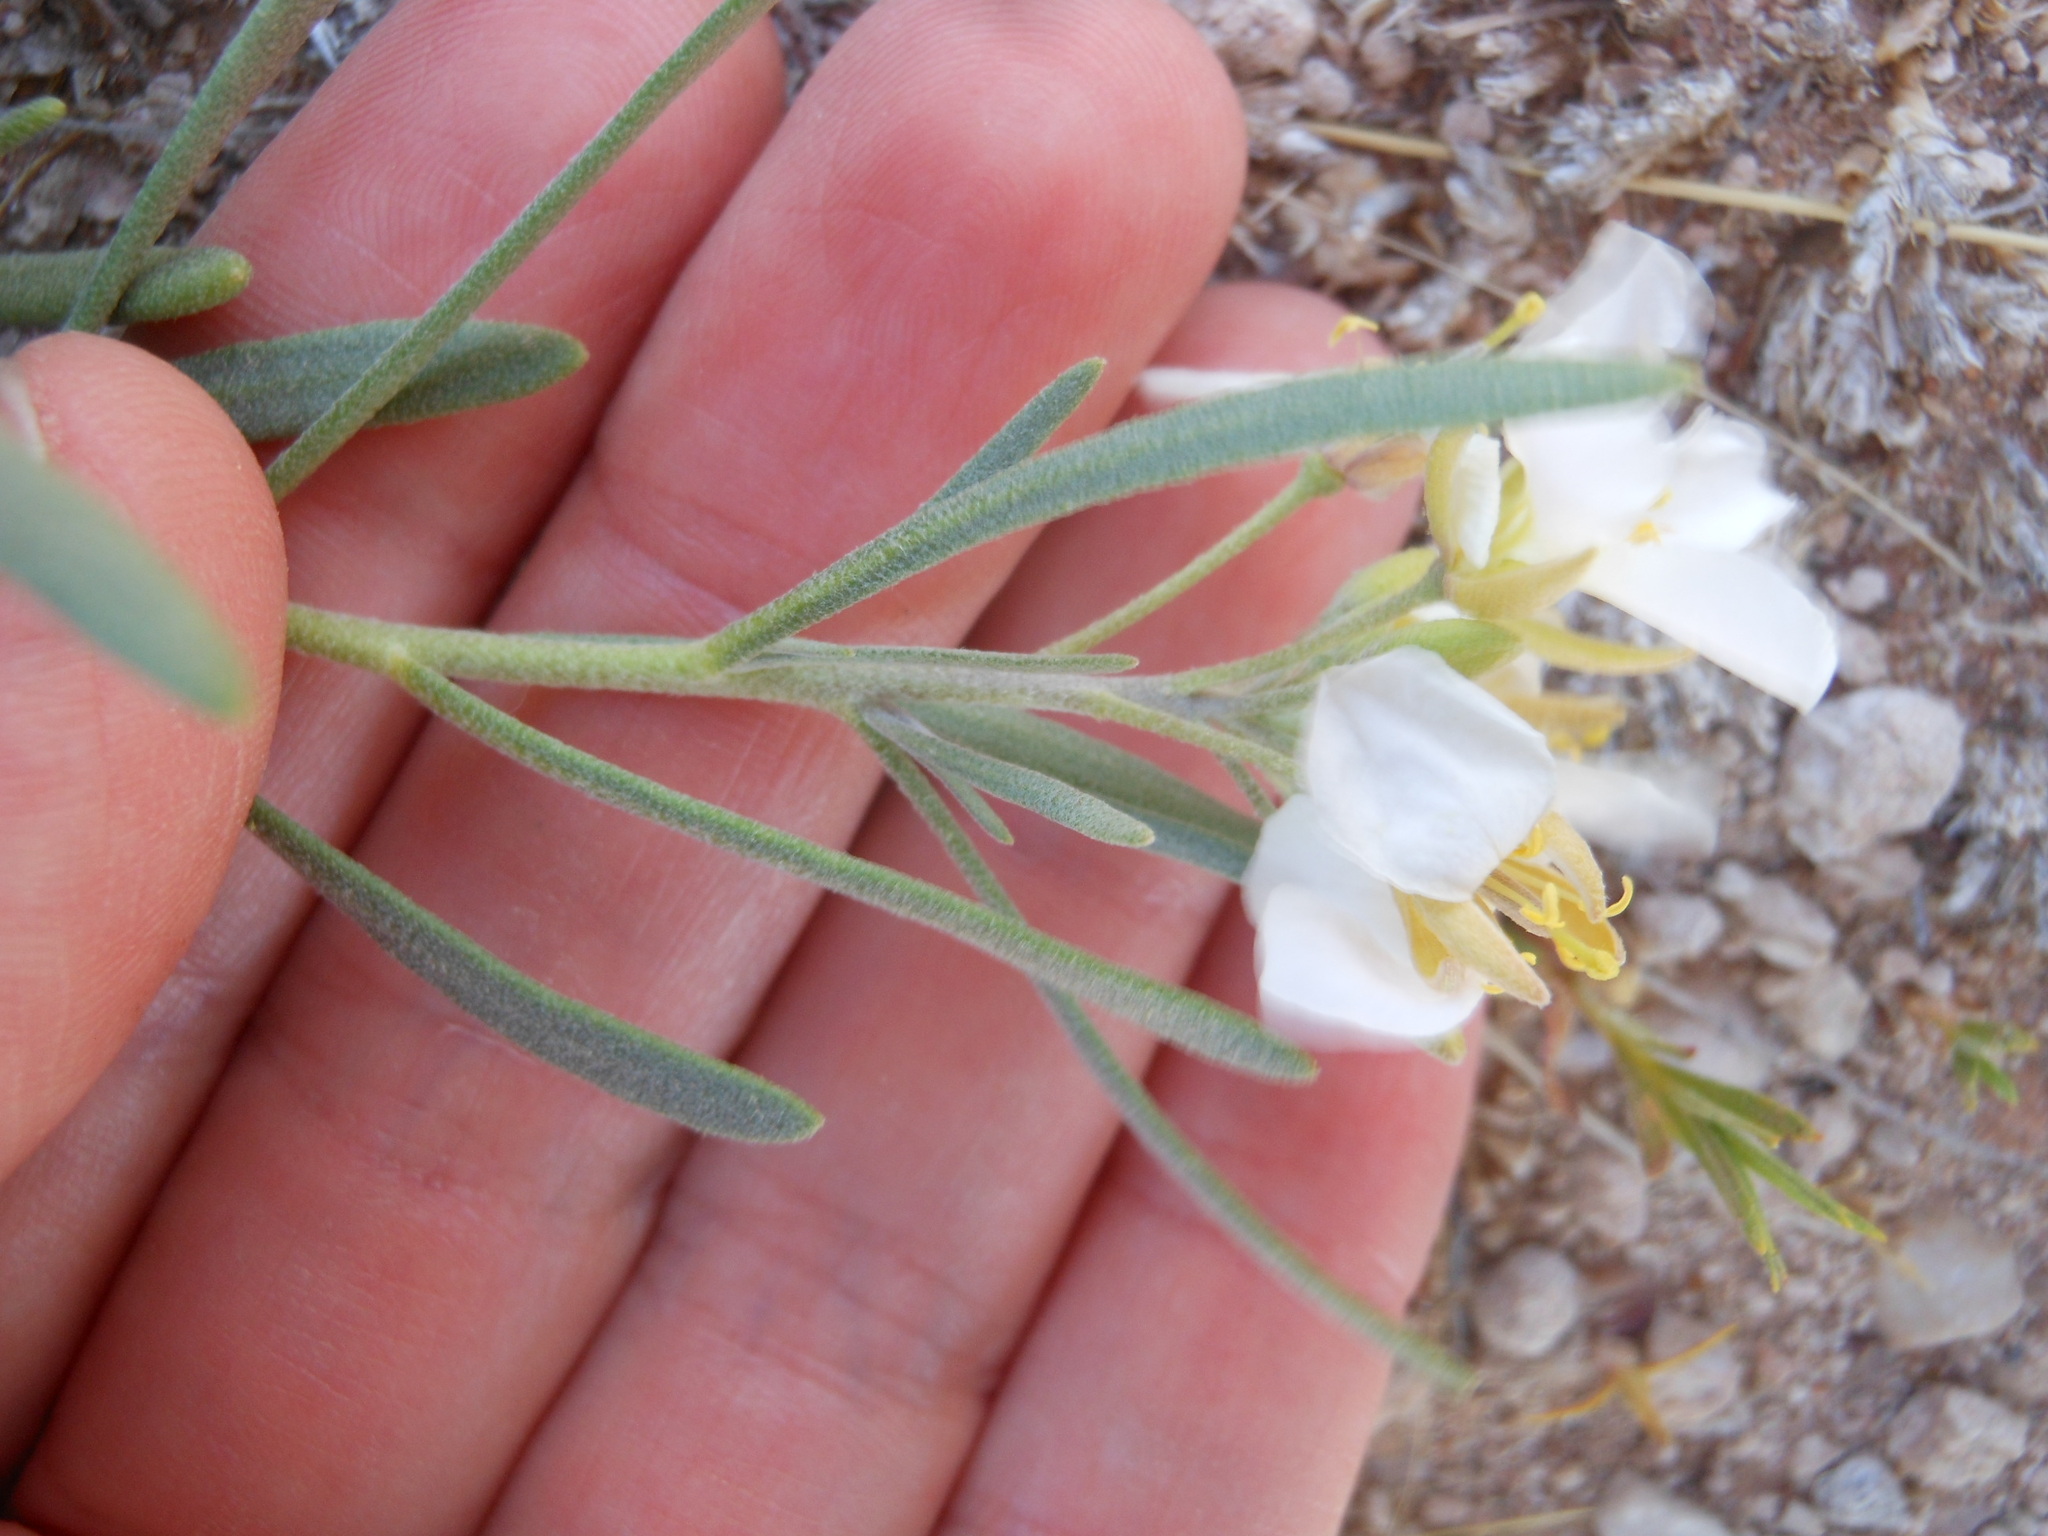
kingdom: Plantae
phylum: Tracheophyta
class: Magnoliopsida
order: Brassicales
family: Brassicaceae
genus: Nerisyrenia
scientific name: Nerisyrenia linearifolia
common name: White sands fan mustard
